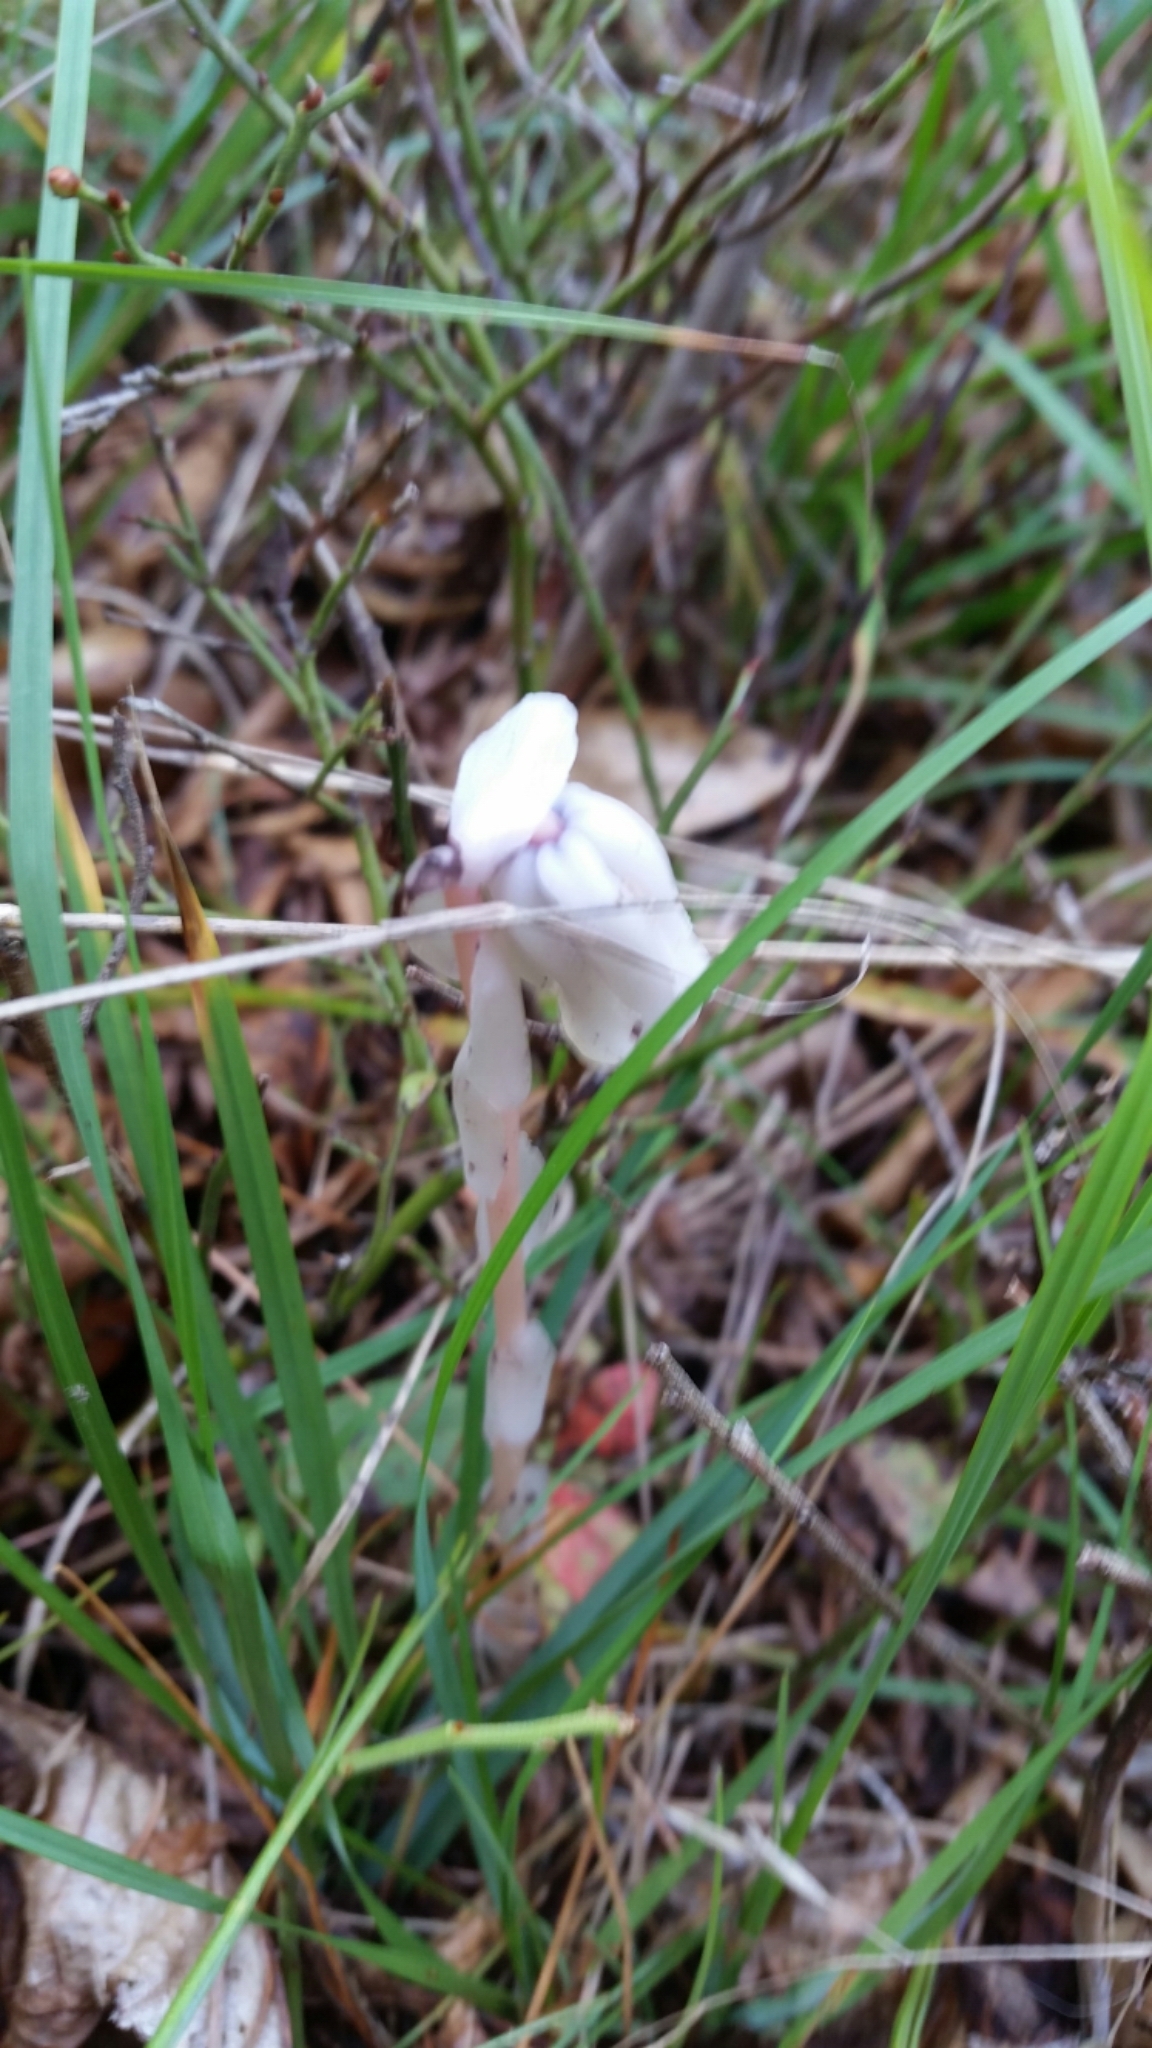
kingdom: Plantae
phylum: Tracheophyta
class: Magnoliopsida
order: Ericales
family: Ericaceae
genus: Monotropa
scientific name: Monotropa uniflora
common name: Convulsion root
